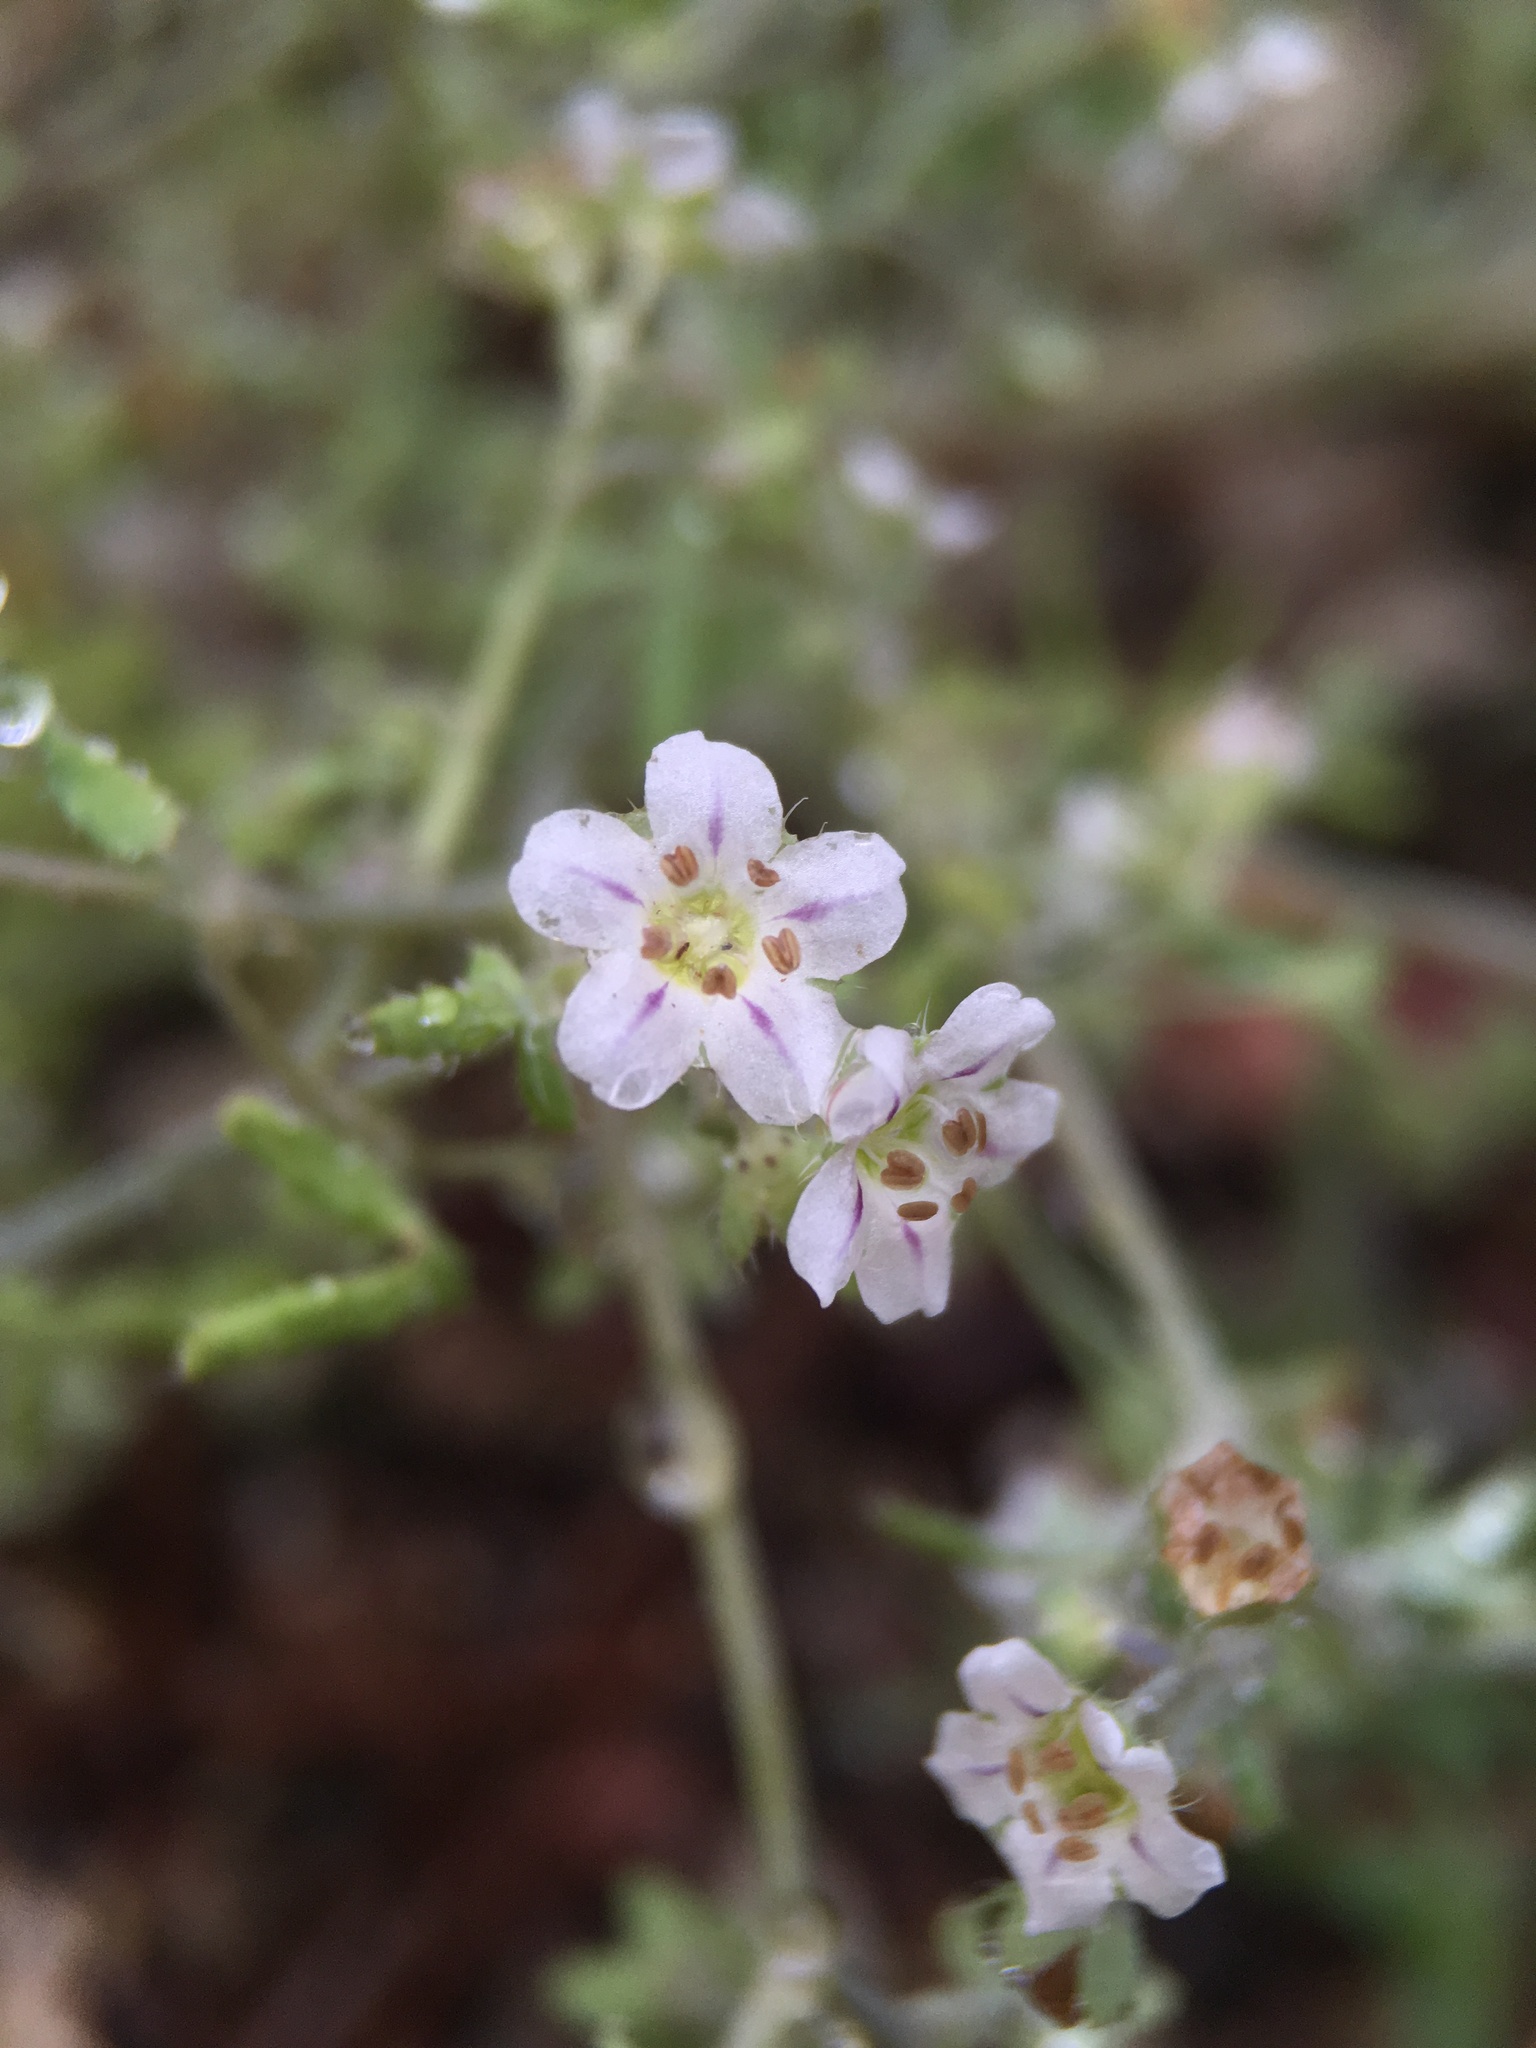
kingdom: Plantae
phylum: Tracheophyta
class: Magnoliopsida
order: Boraginales
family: Hydrophyllaceae
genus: Pholistoma
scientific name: Pholistoma membranaceum
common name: White fiesta-flower
